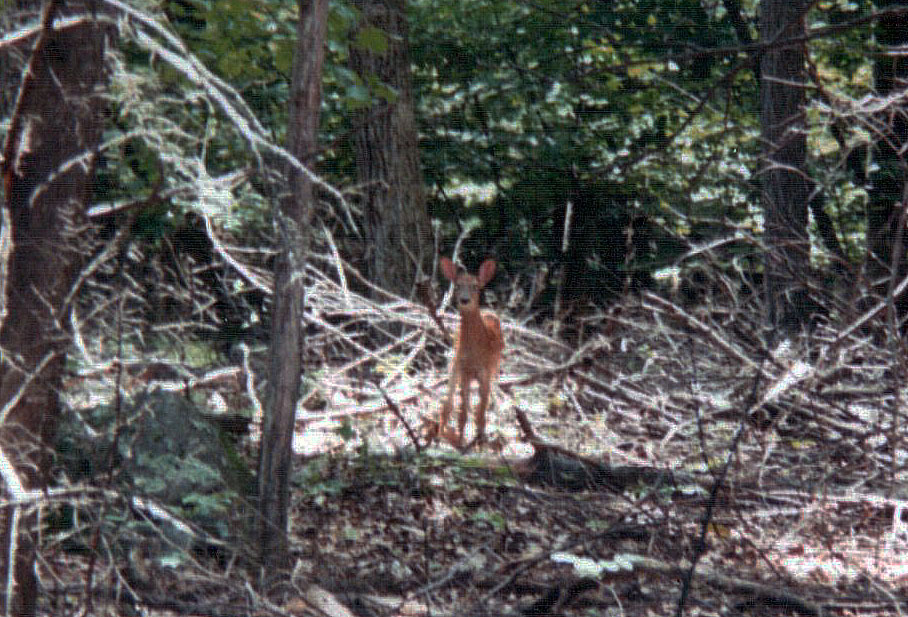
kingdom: Animalia
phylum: Chordata
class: Mammalia
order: Artiodactyla
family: Cervidae
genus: Odocoileus
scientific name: Odocoileus virginianus
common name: White-tailed deer
